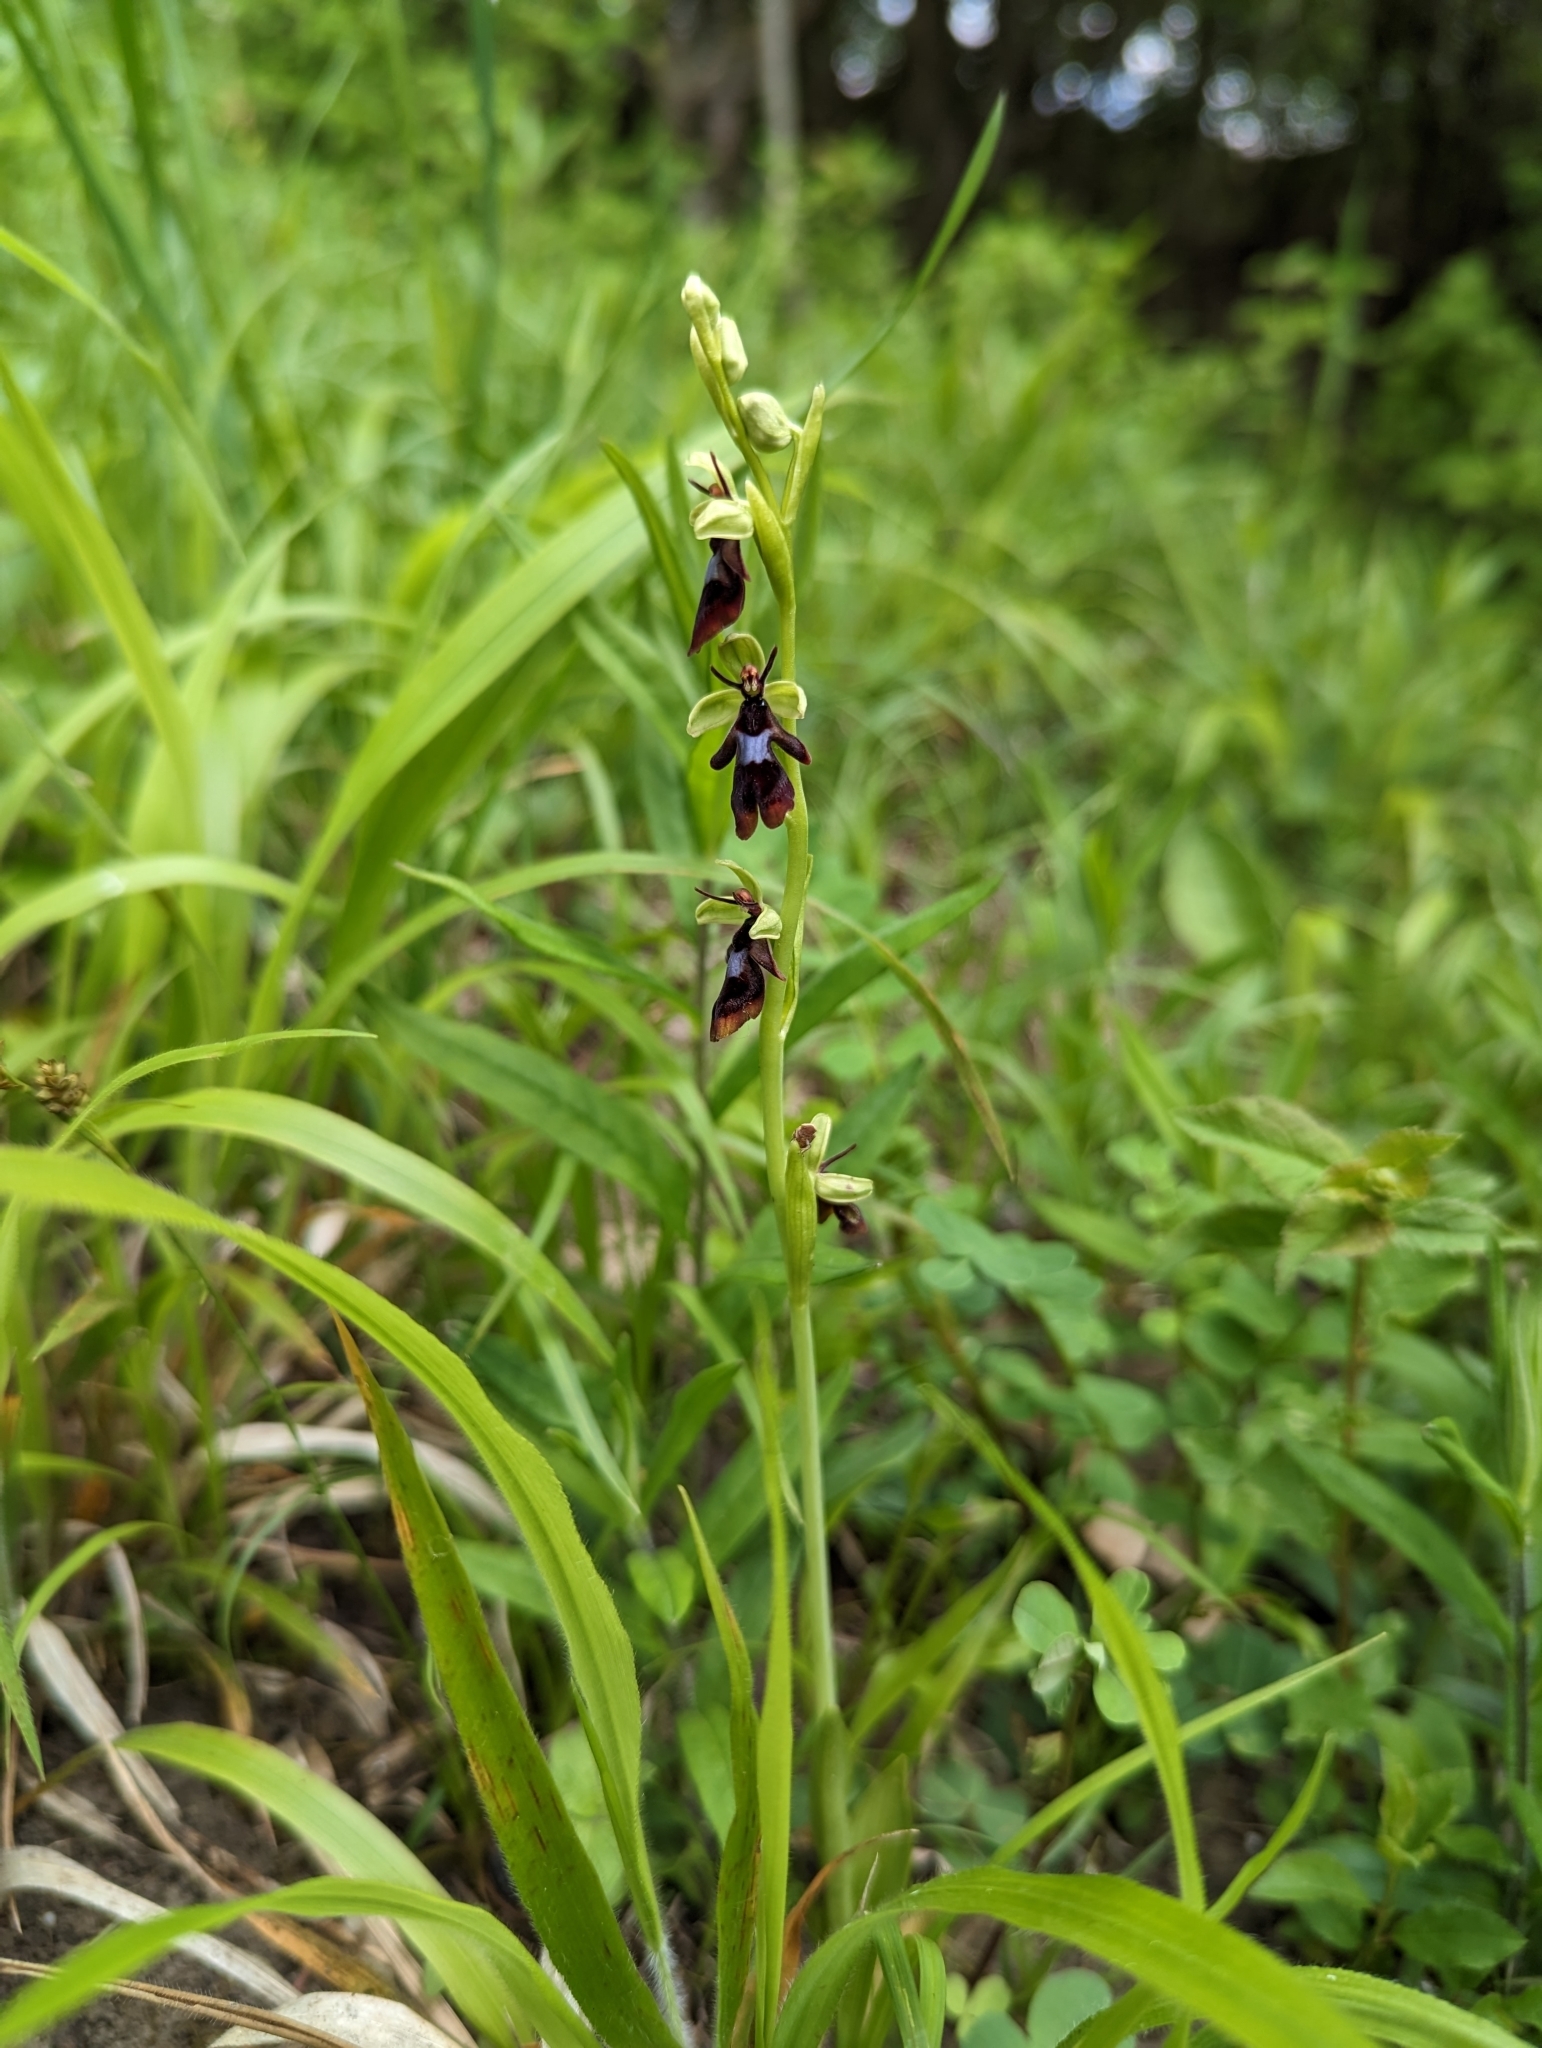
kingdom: Plantae
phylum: Tracheophyta
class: Liliopsida
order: Asparagales
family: Orchidaceae
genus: Ophrys
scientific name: Ophrys insectifera
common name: Fly orchid
